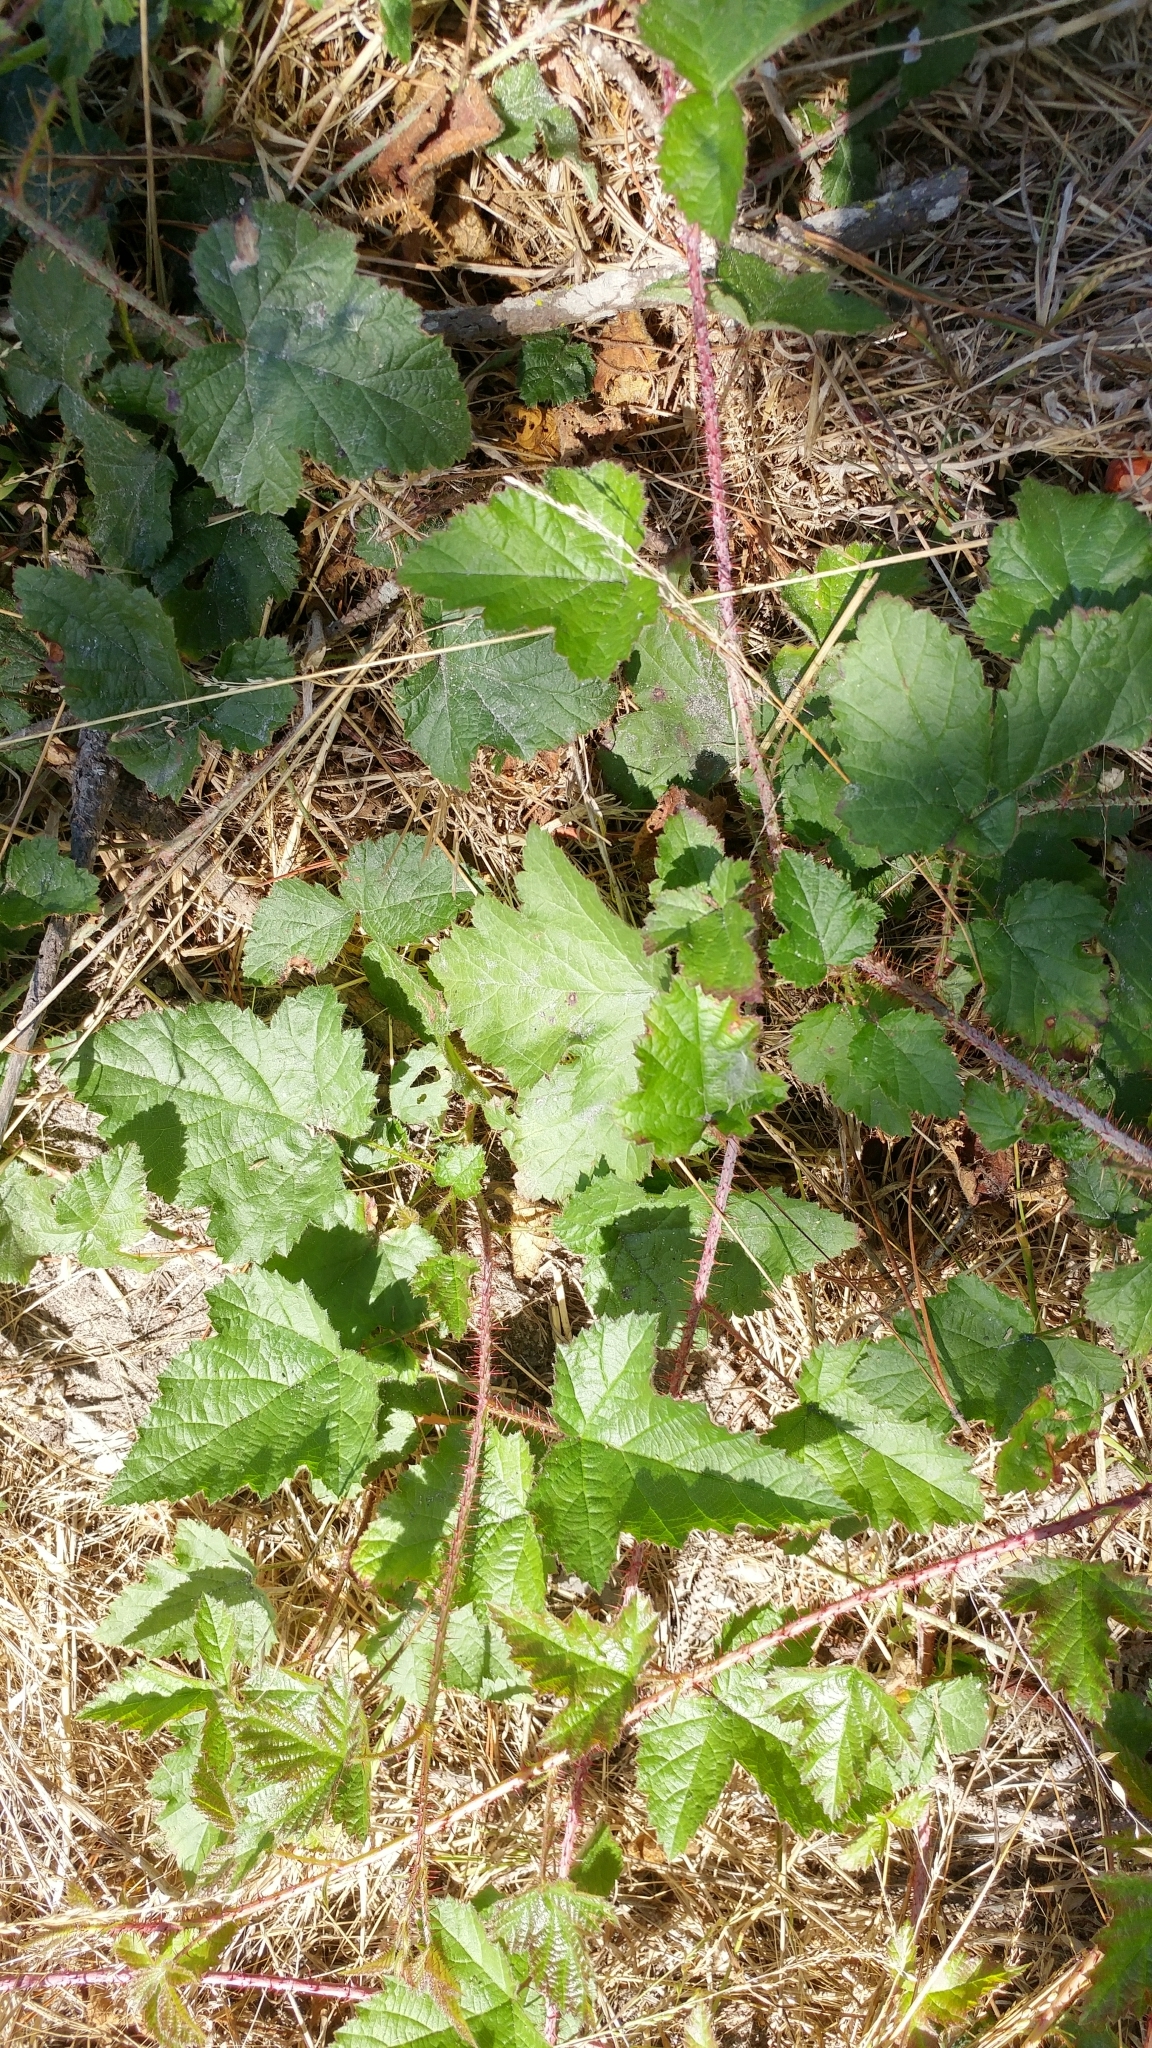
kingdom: Plantae
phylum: Tracheophyta
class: Magnoliopsida
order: Rosales
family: Rosaceae
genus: Rubus
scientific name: Rubus ursinus
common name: Pacific blackberry
